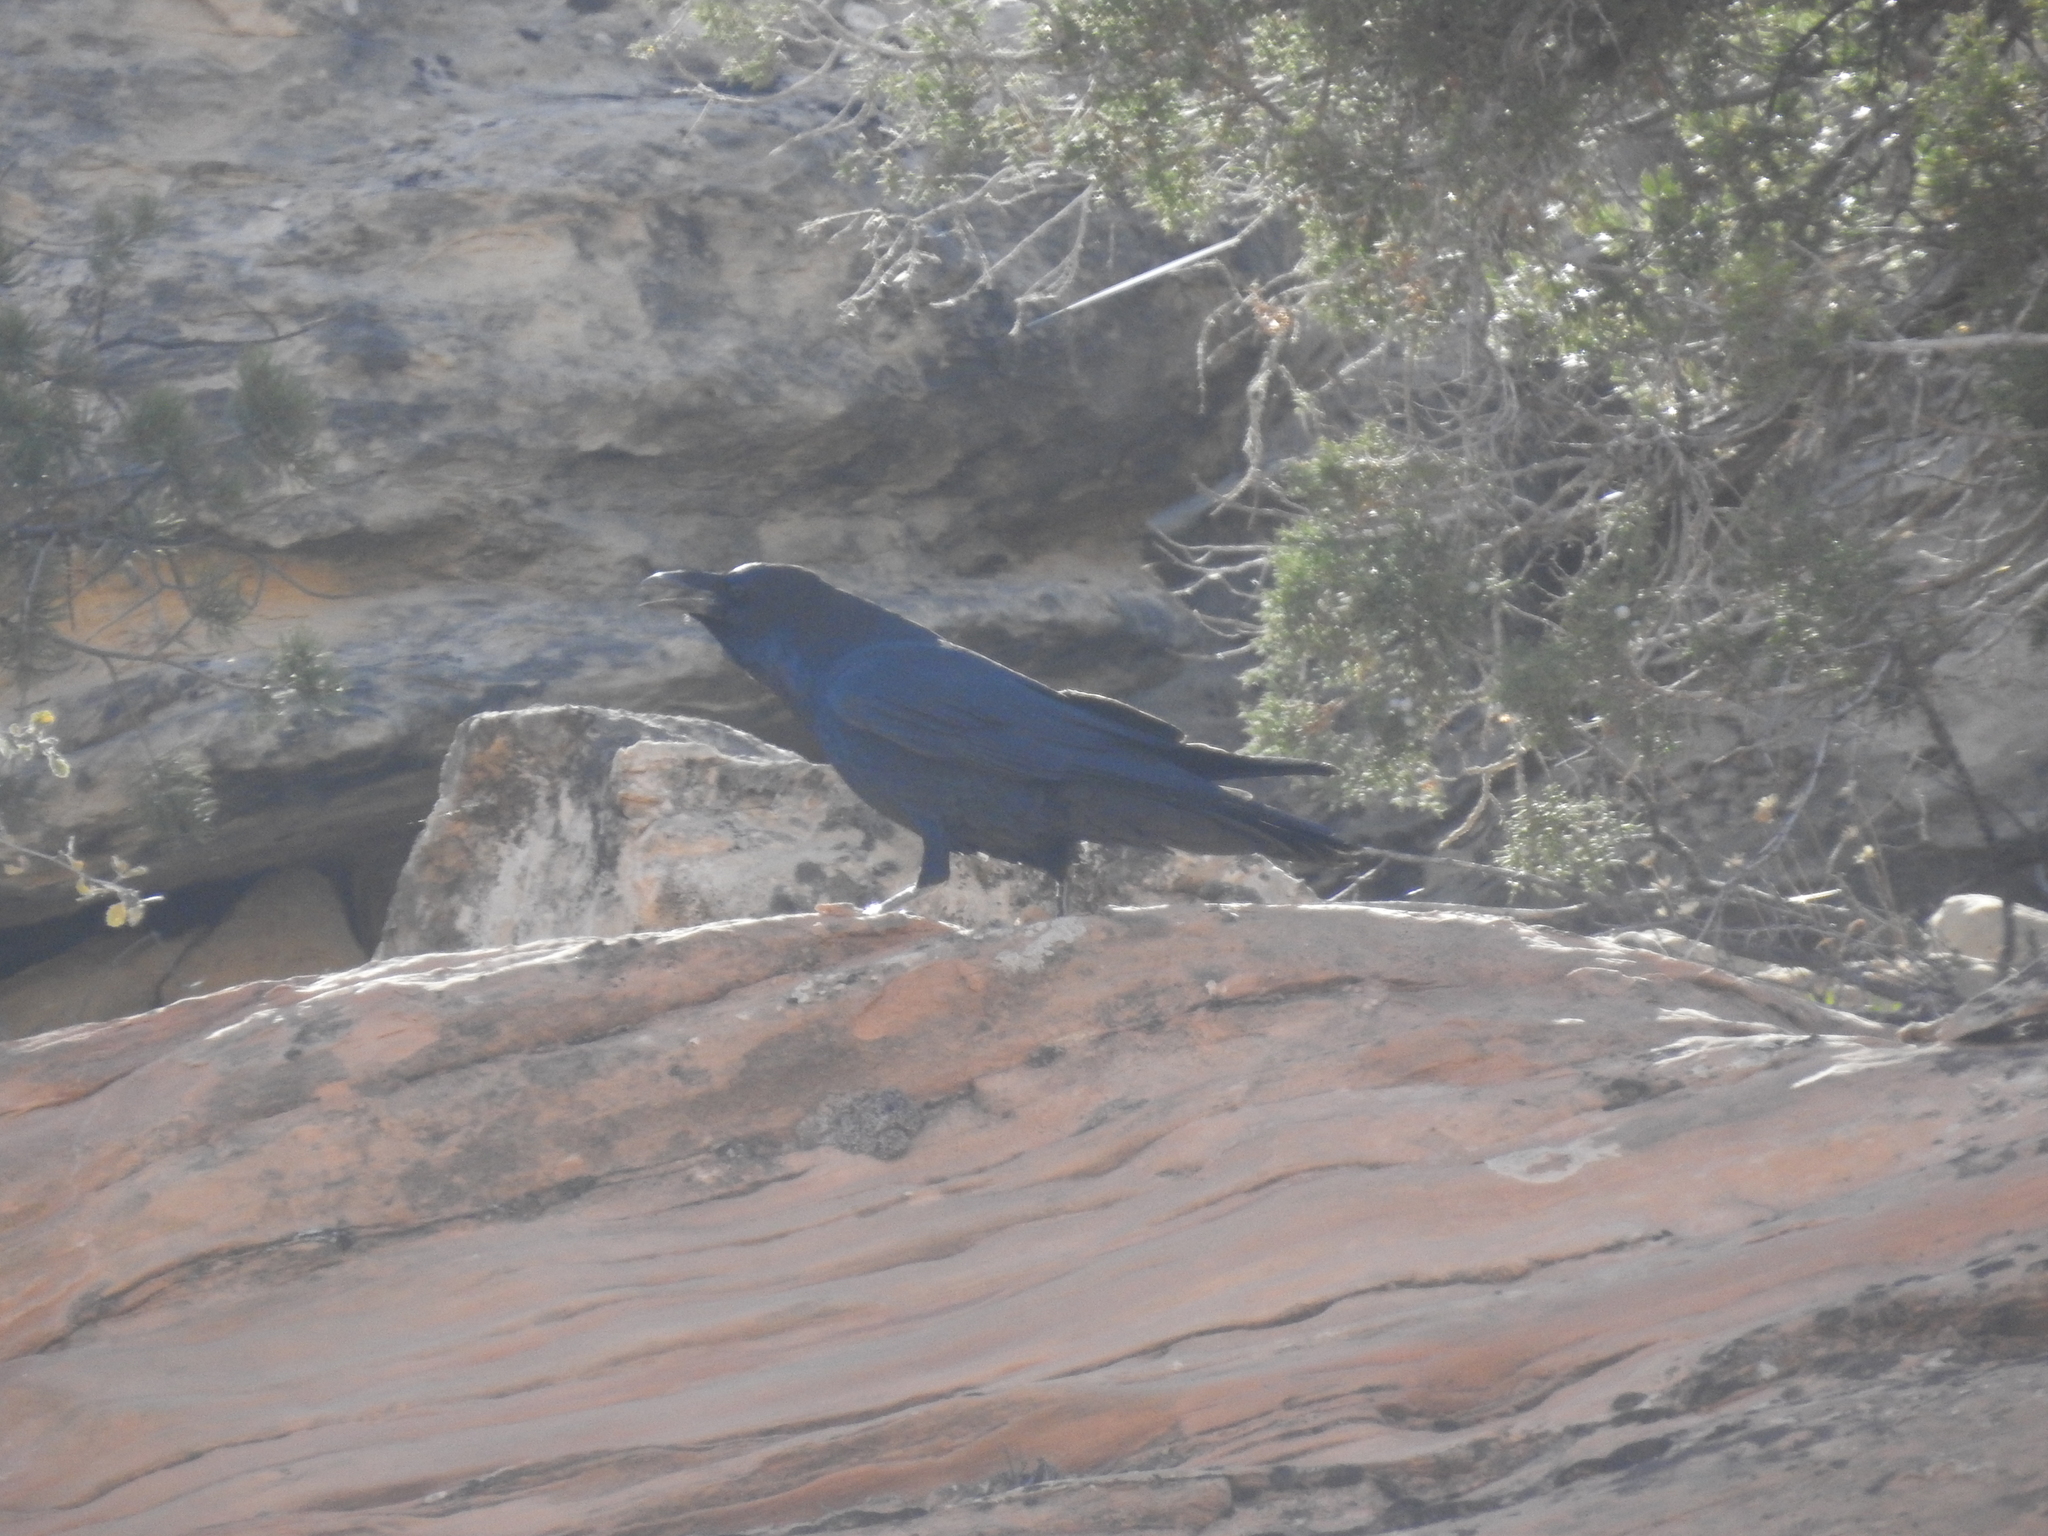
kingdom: Animalia
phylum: Chordata
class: Aves
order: Passeriformes
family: Corvidae
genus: Corvus
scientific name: Corvus corax
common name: Common raven
